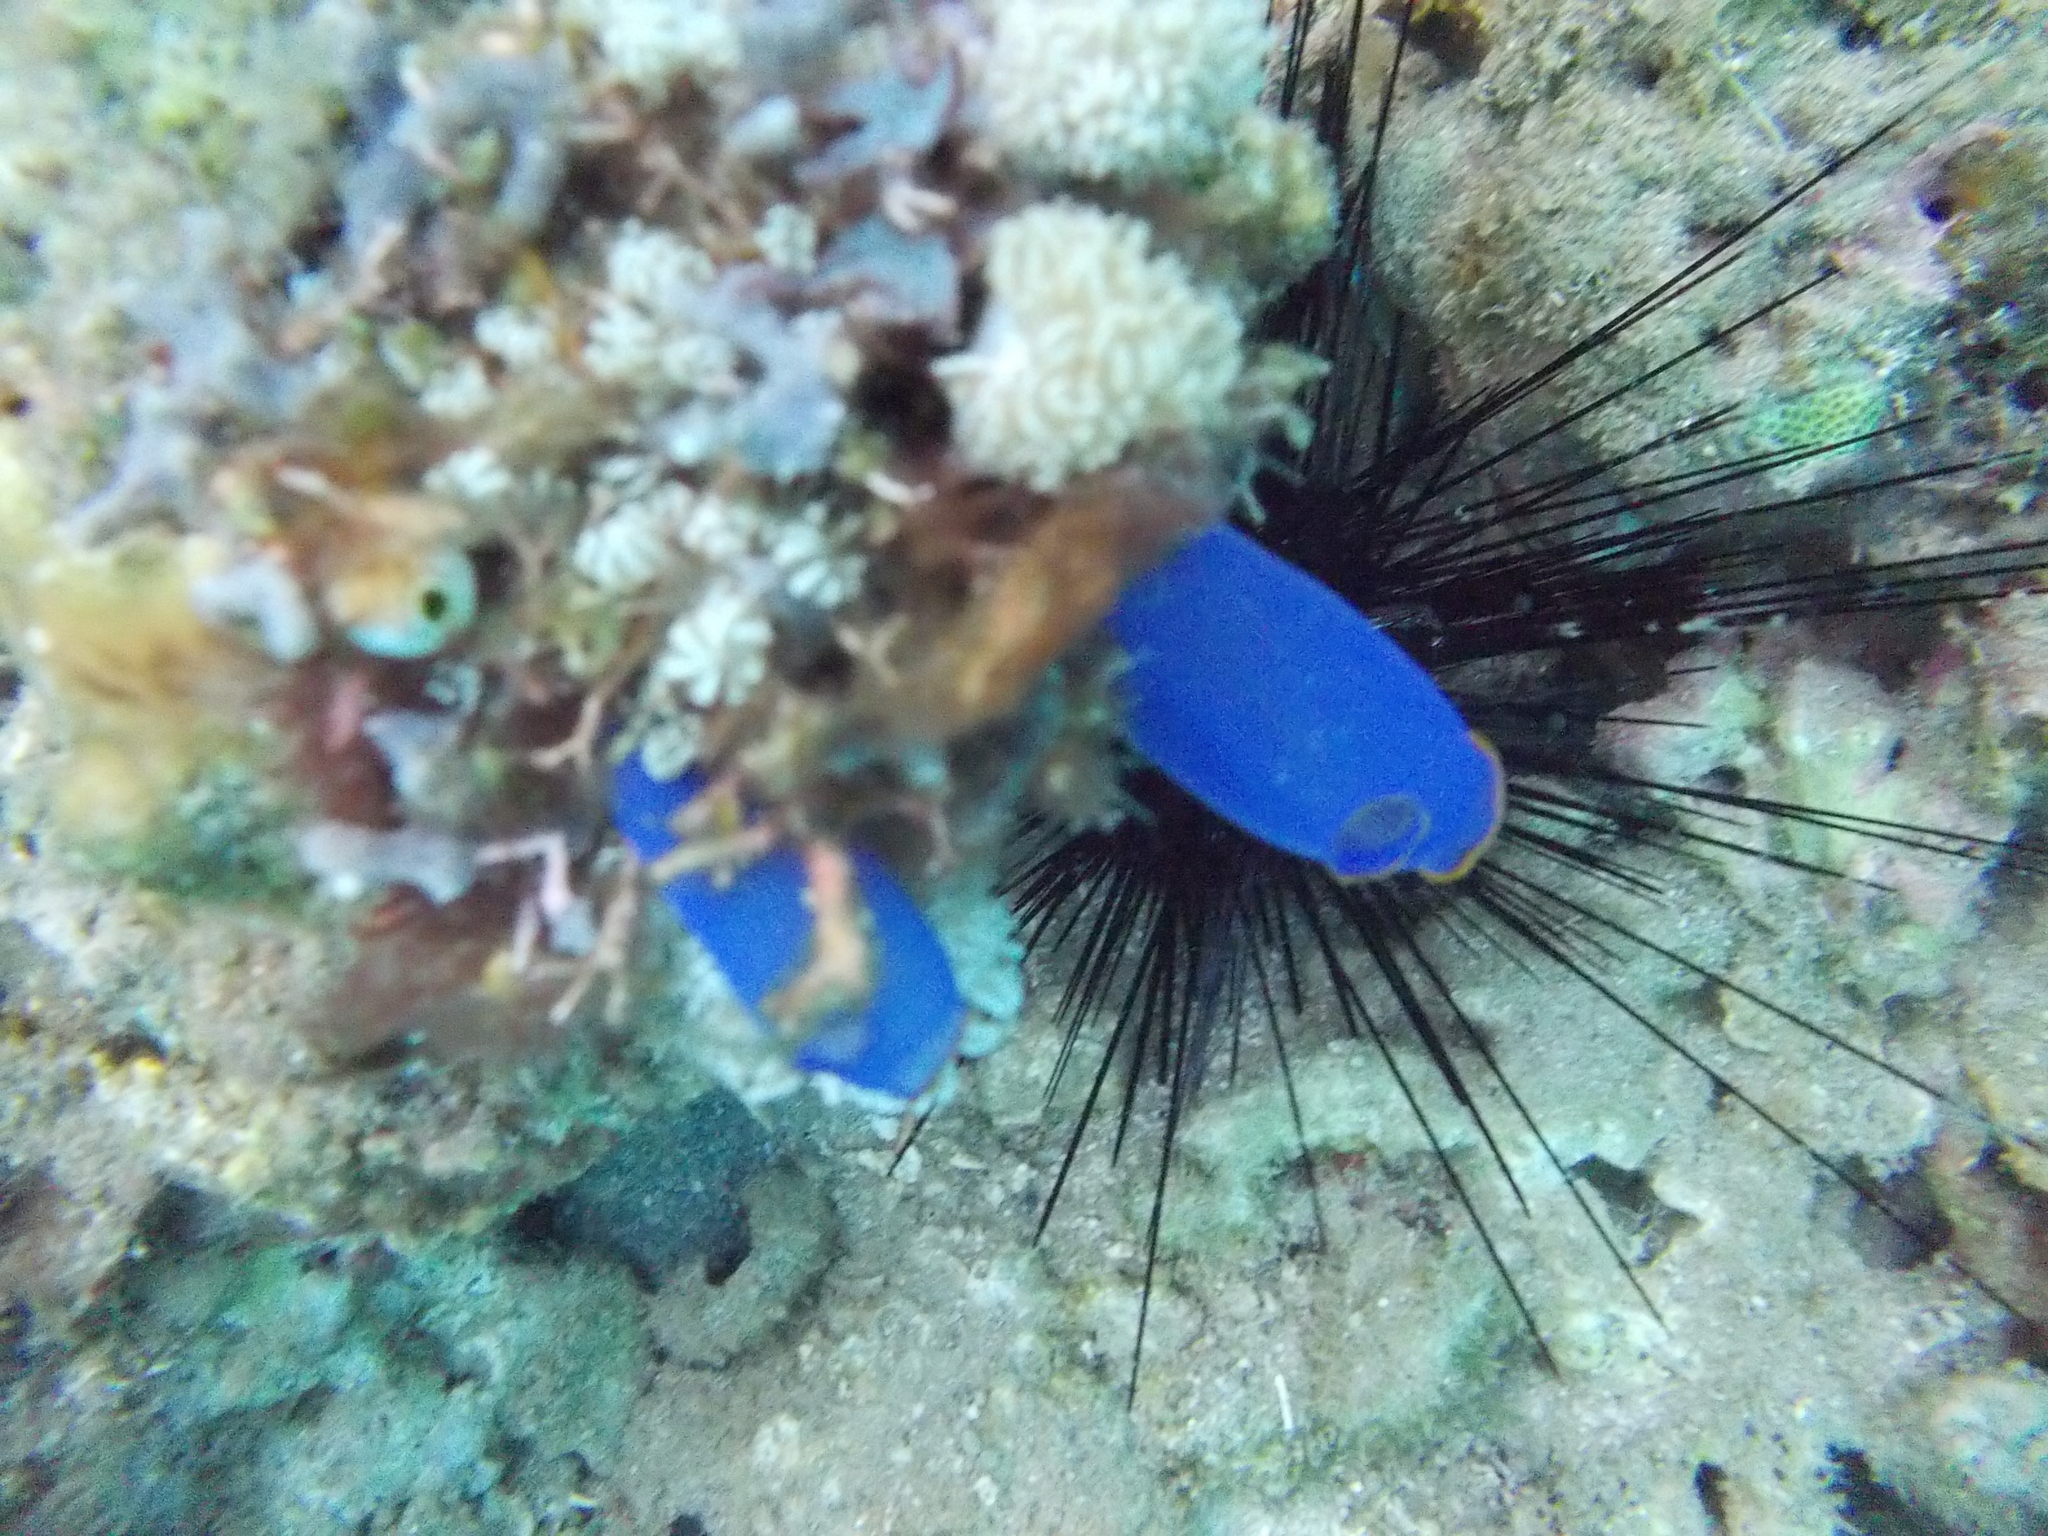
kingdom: Animalia
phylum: Chordata
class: Ascidiacea
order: Aplousobranchia
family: Diazonidae
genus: Rhopalaea
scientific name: Rhopalaea fusca
